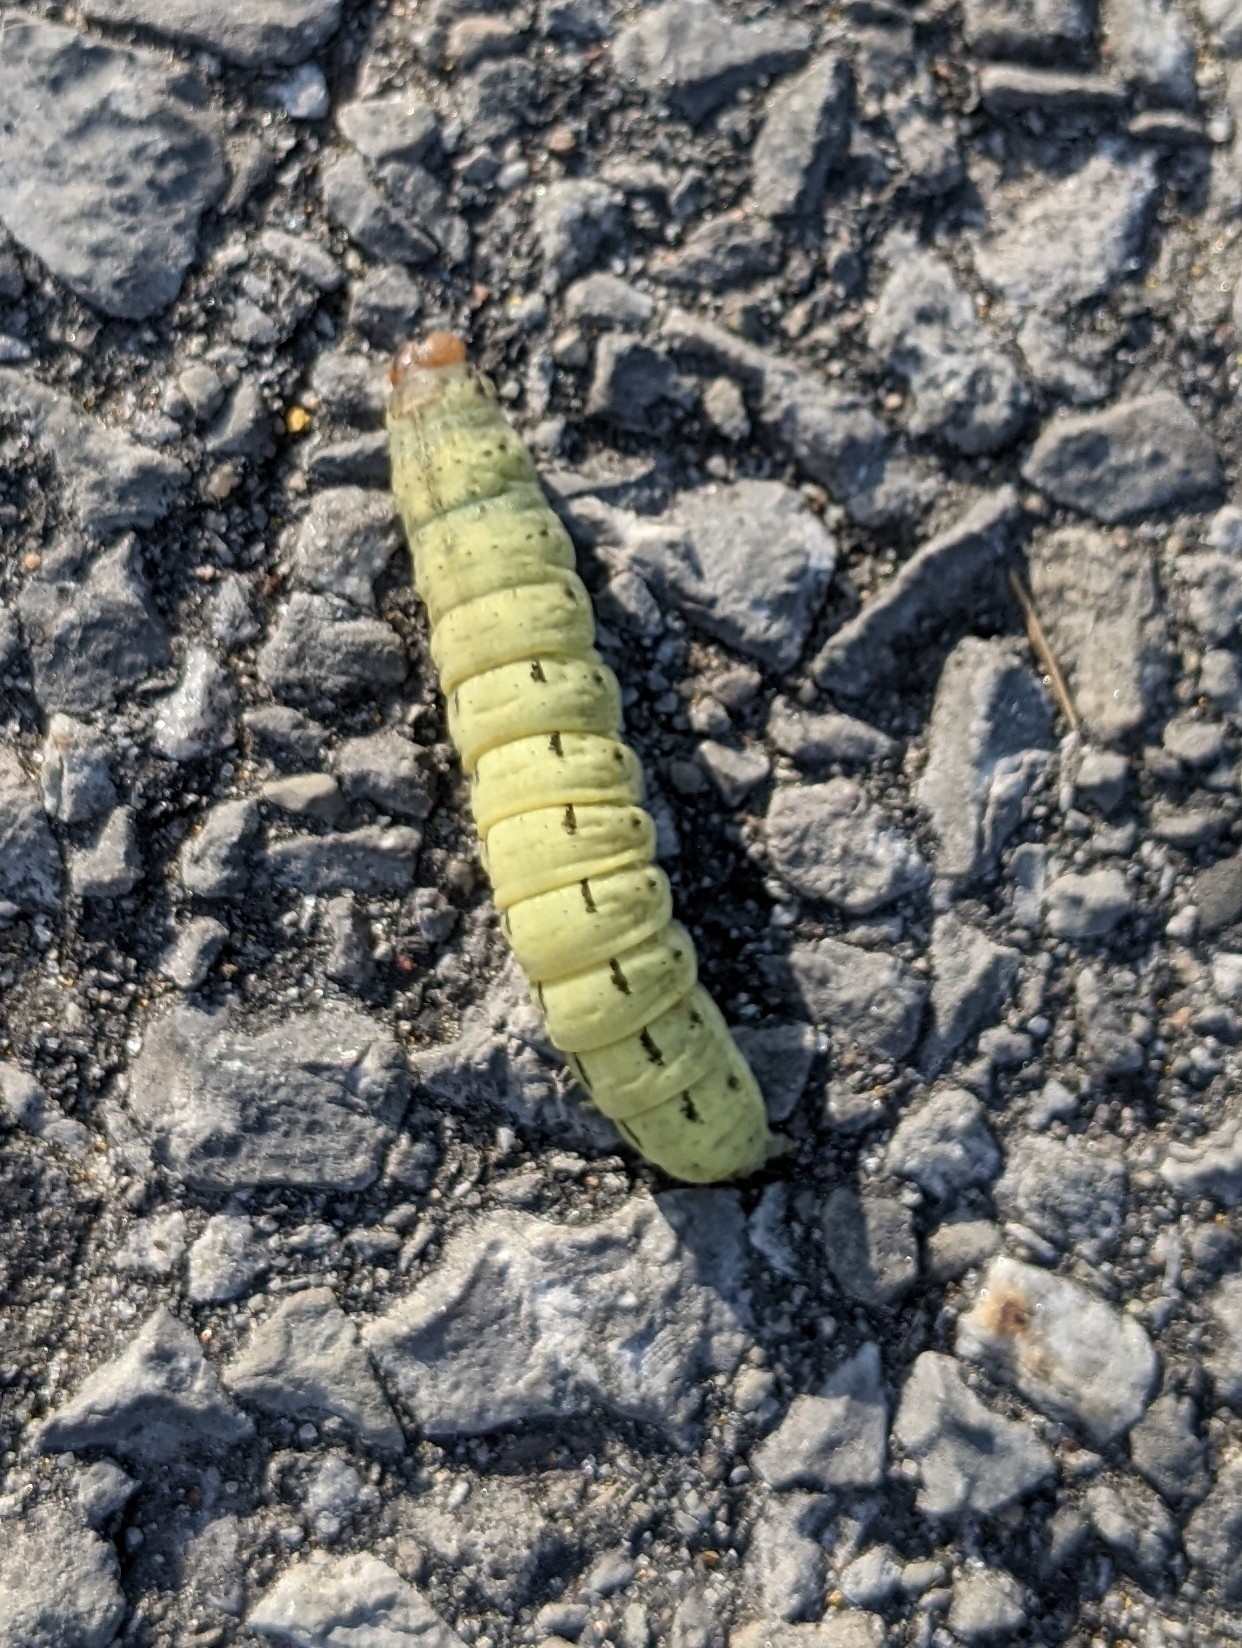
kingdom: Animalia
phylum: Arthropoda
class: Insecta
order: Lepidoptera
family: Noctuidae
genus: Noctua
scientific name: Noctua pronuba
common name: Large yellow underwing
